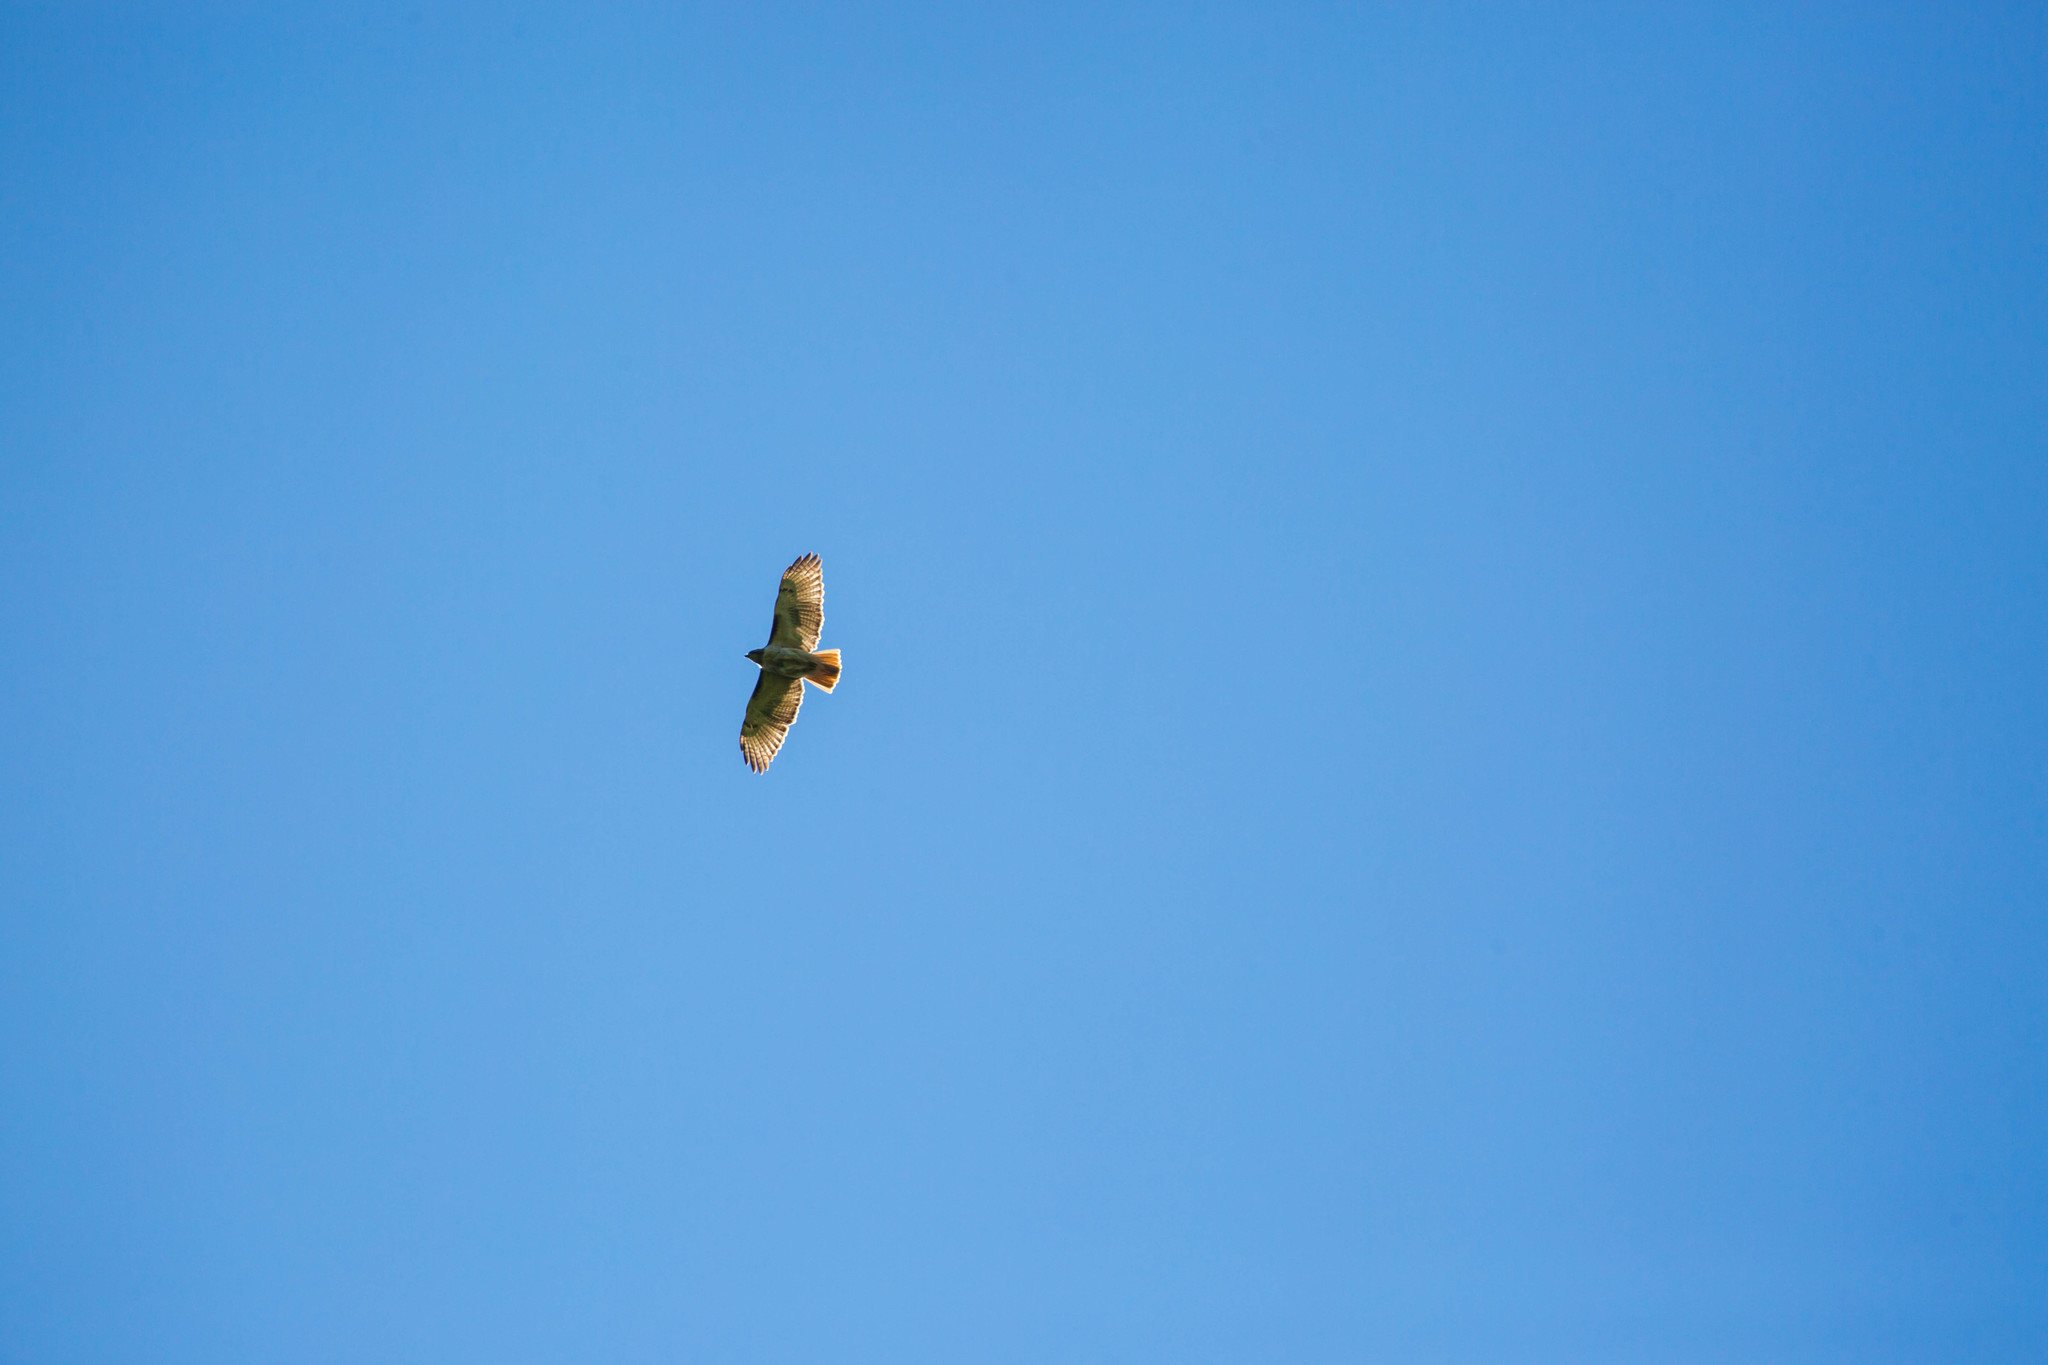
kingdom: Animalia
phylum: Chordata
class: Aves
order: Accipitriformes
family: Accipitridae
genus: Buteo
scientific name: Buteo jamaicensis
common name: Red-tailed hawk
